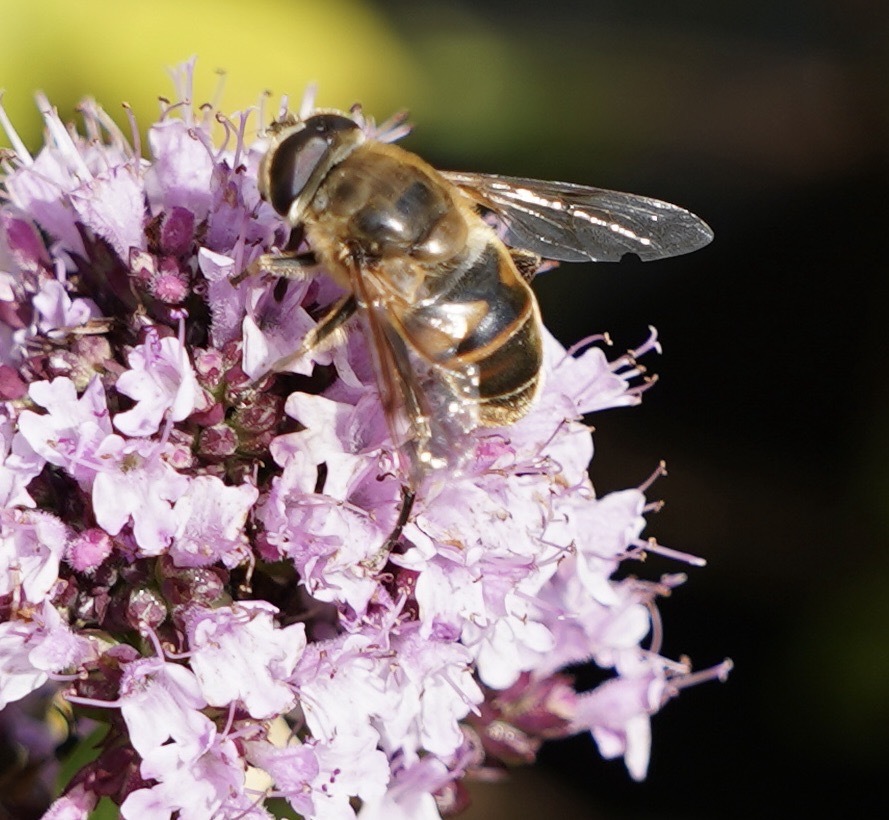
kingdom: Animalia
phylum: Arthropoda
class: Insecta
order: Diptera
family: Syrphidae
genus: Eristalis
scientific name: Eristalis tenax
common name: Drone fly
